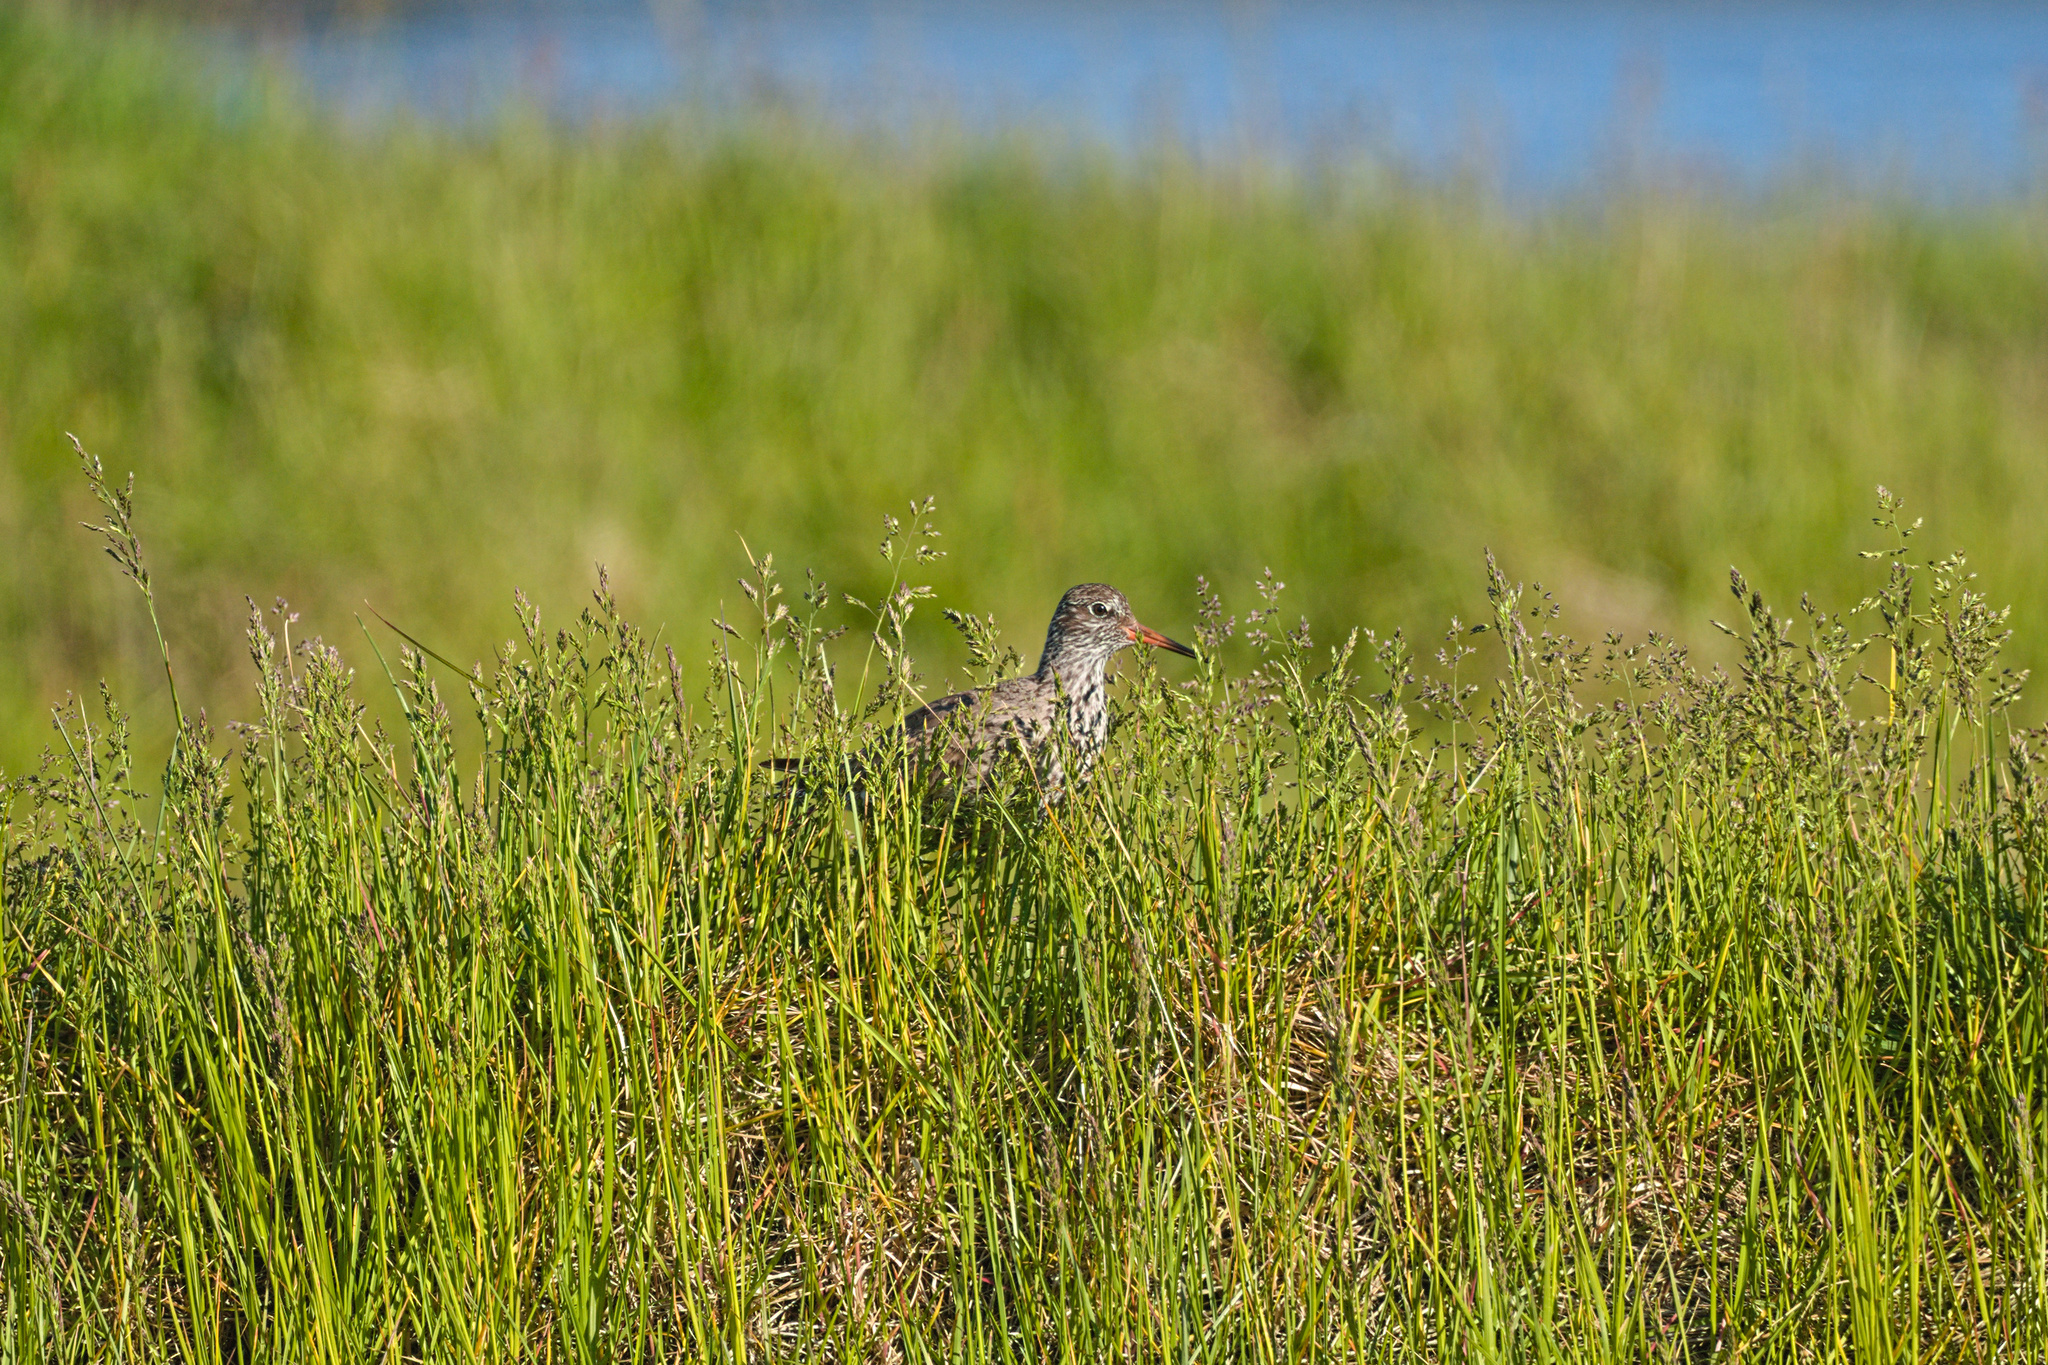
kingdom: Animalia
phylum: Chordata
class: Aves
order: Charadriiformes
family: Scolopacidae
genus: Tringa
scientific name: Tringa totanus
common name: Common redshank
